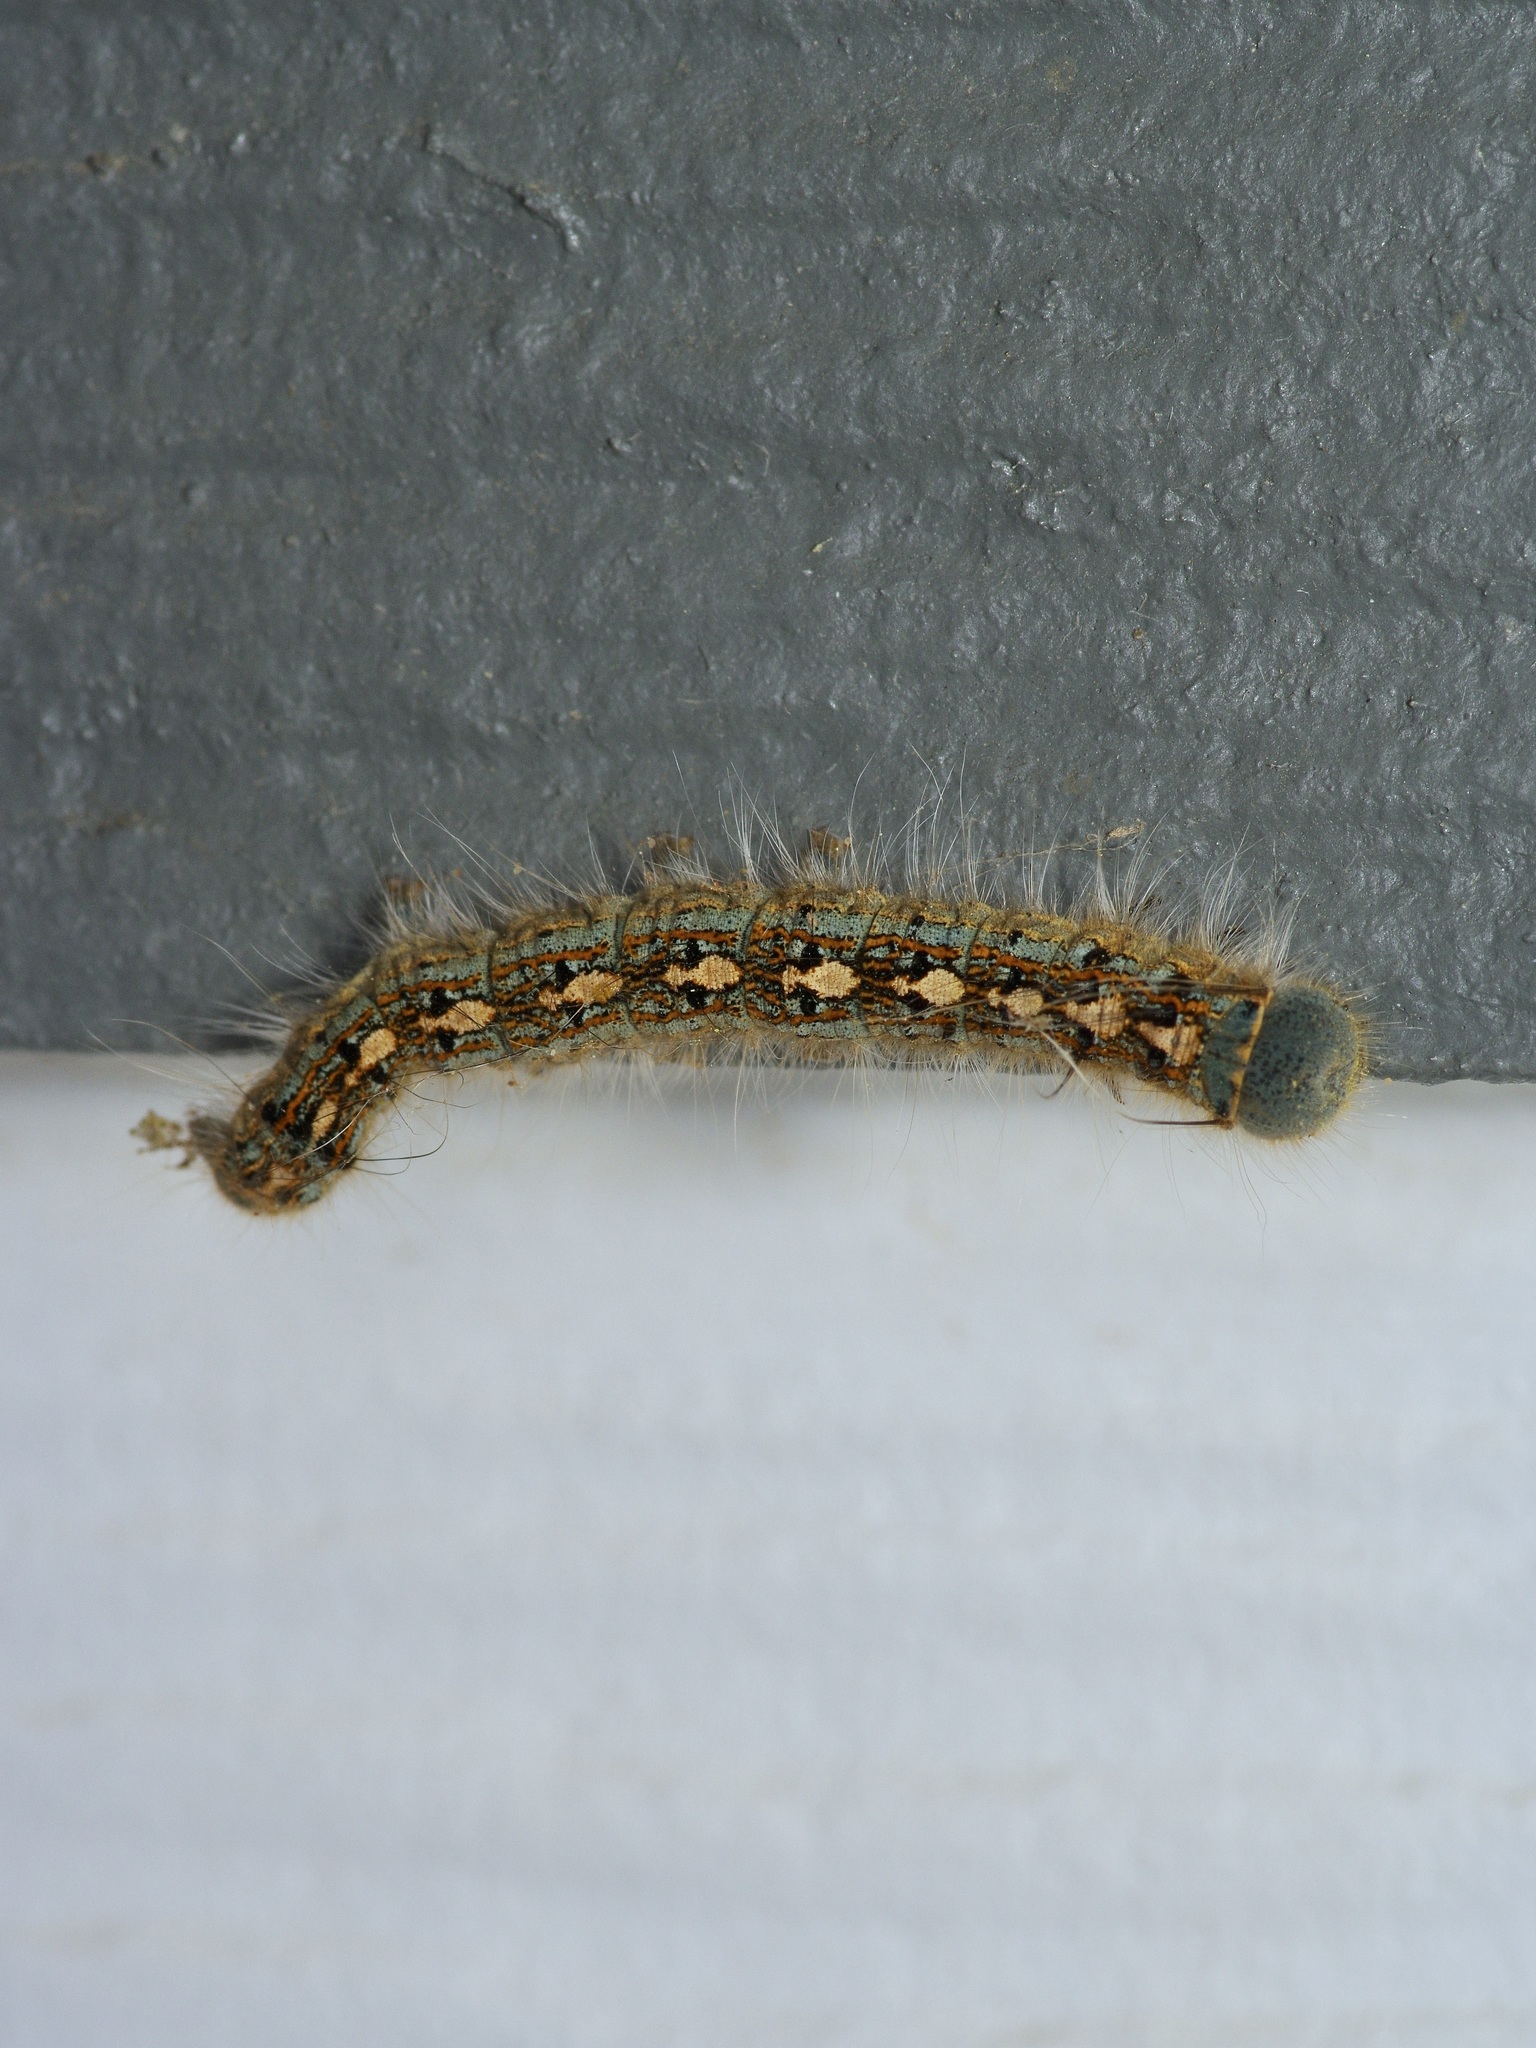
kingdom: Animalia
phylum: Arthropoda
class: Insecta
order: Lepidoptera
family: Lasiocampidae
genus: Malacosoma
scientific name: Malacosoma disstria
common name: Forest tent caterpillar
